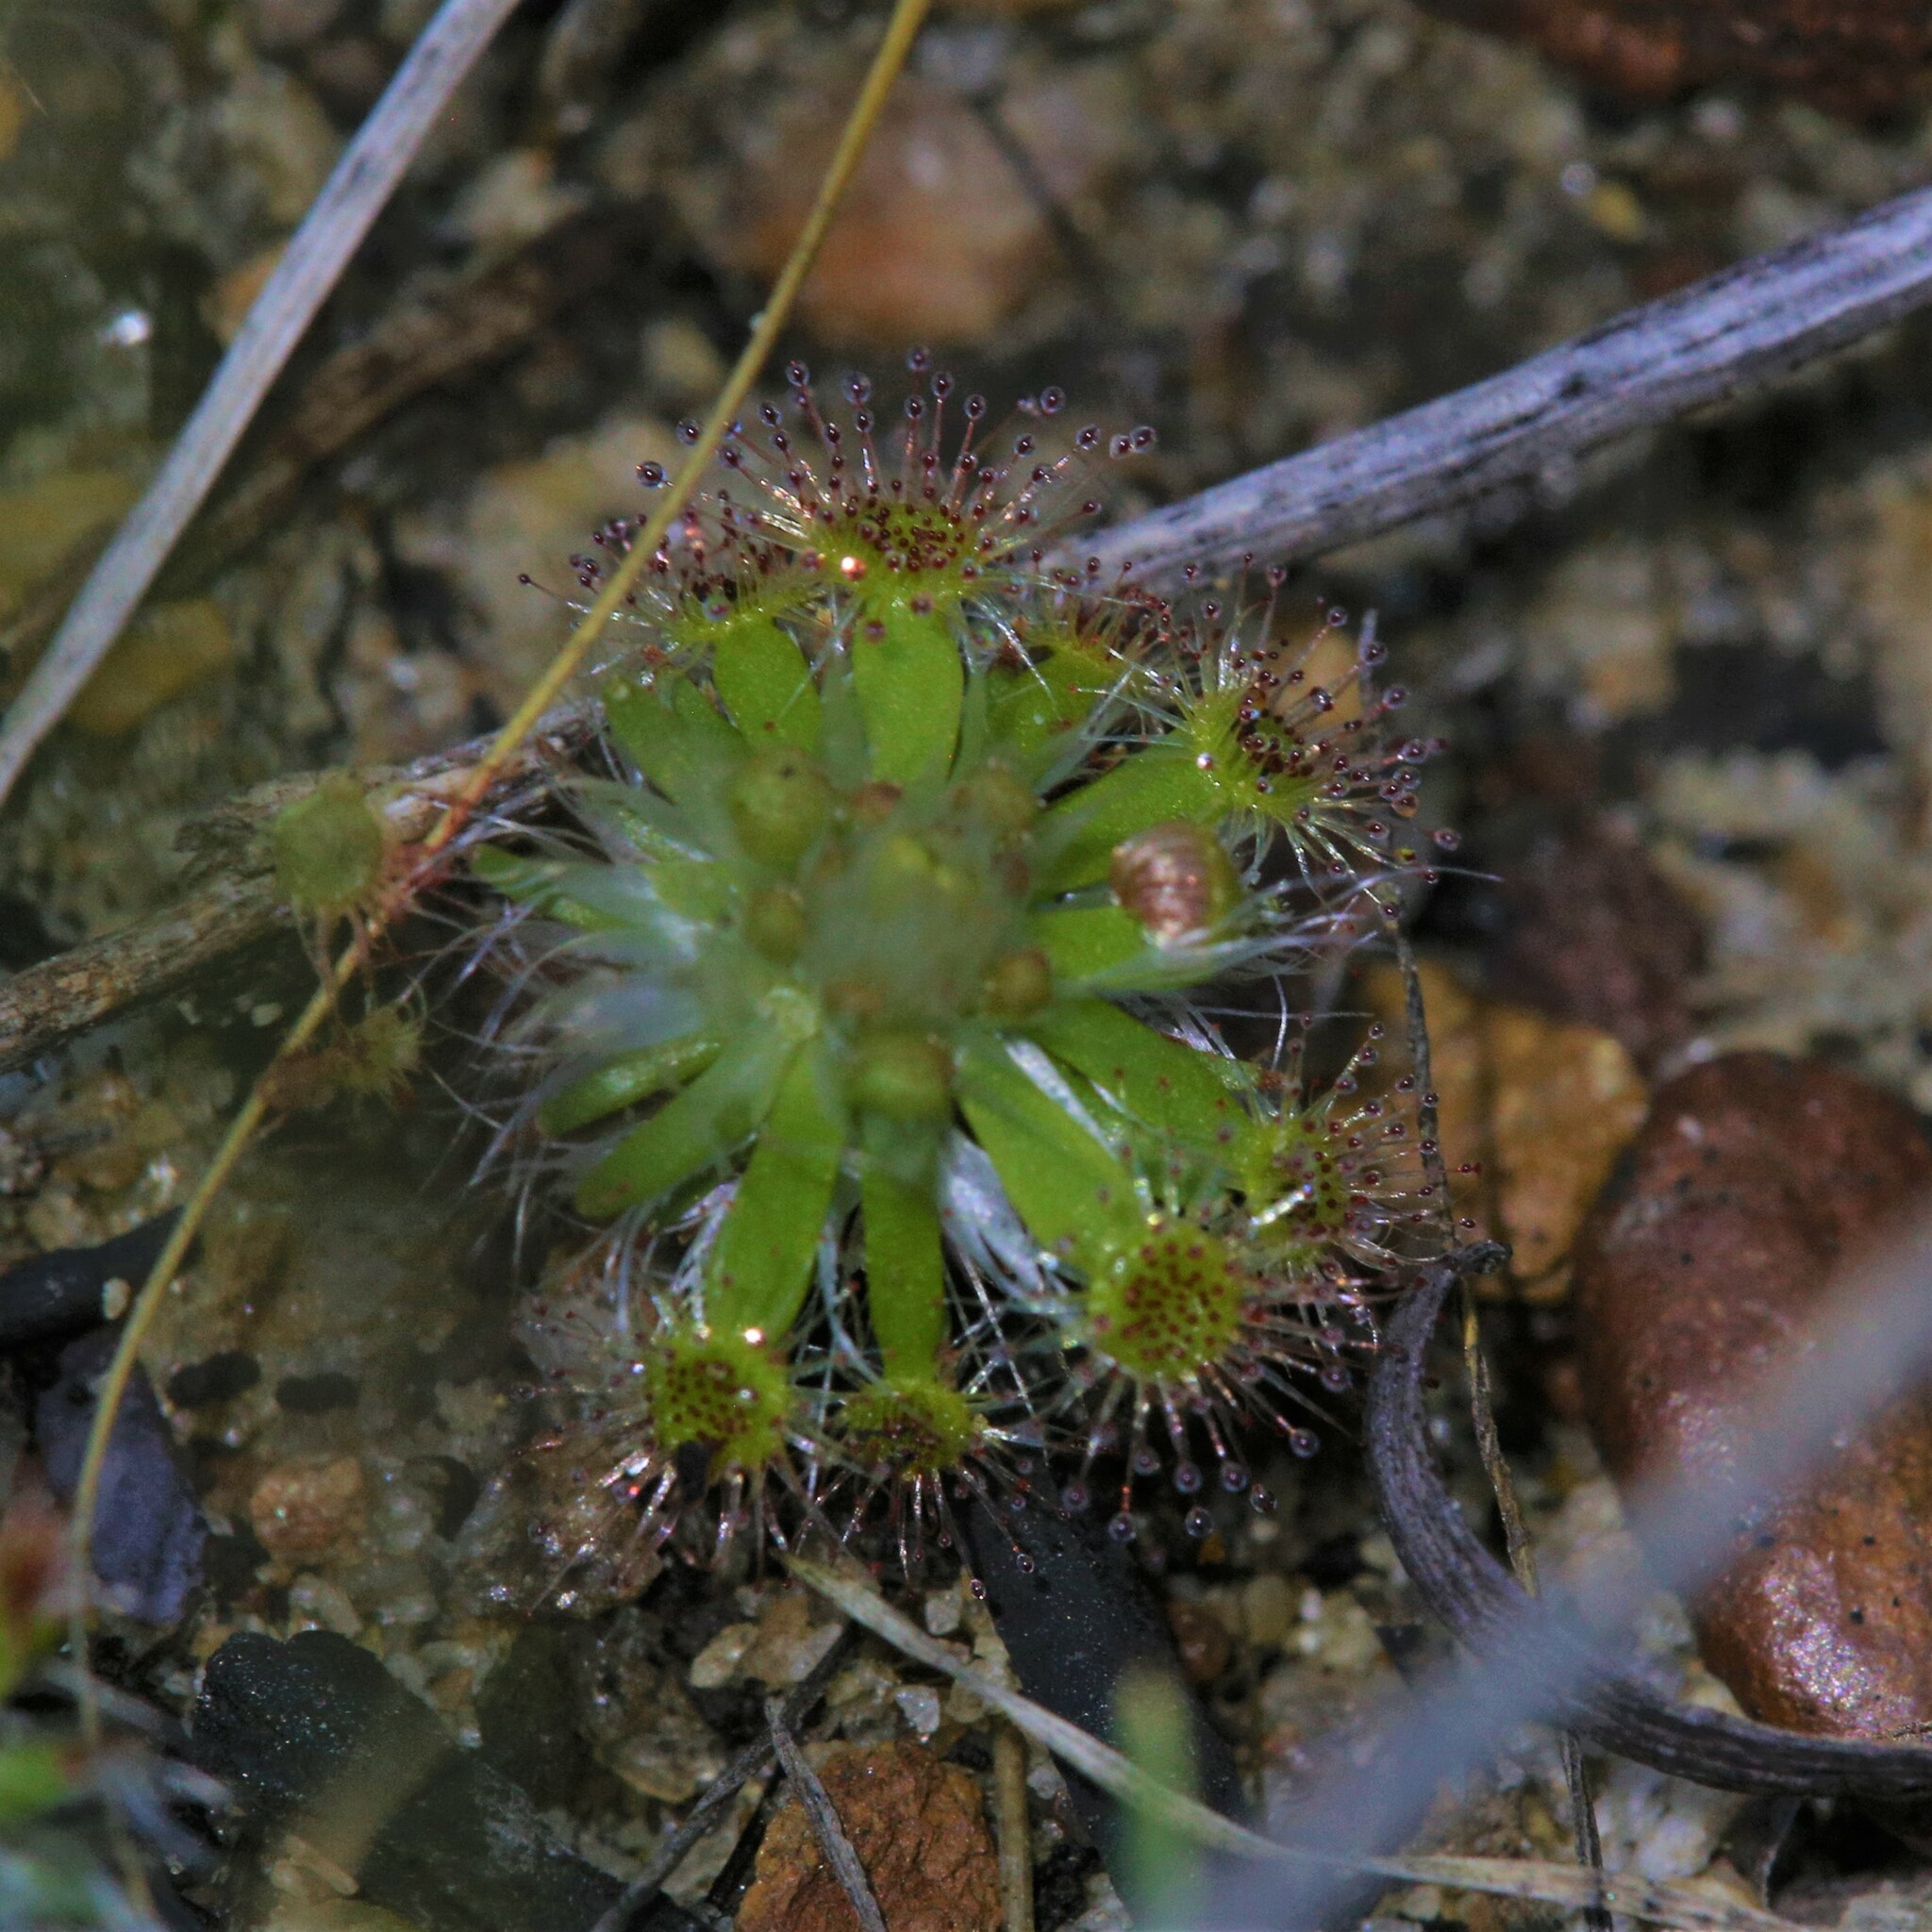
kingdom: Plantae
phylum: Tracheophyta
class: Magnoliopsida
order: Caryophyllales
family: Droseraceae
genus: Drosera
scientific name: Drosera spilos
